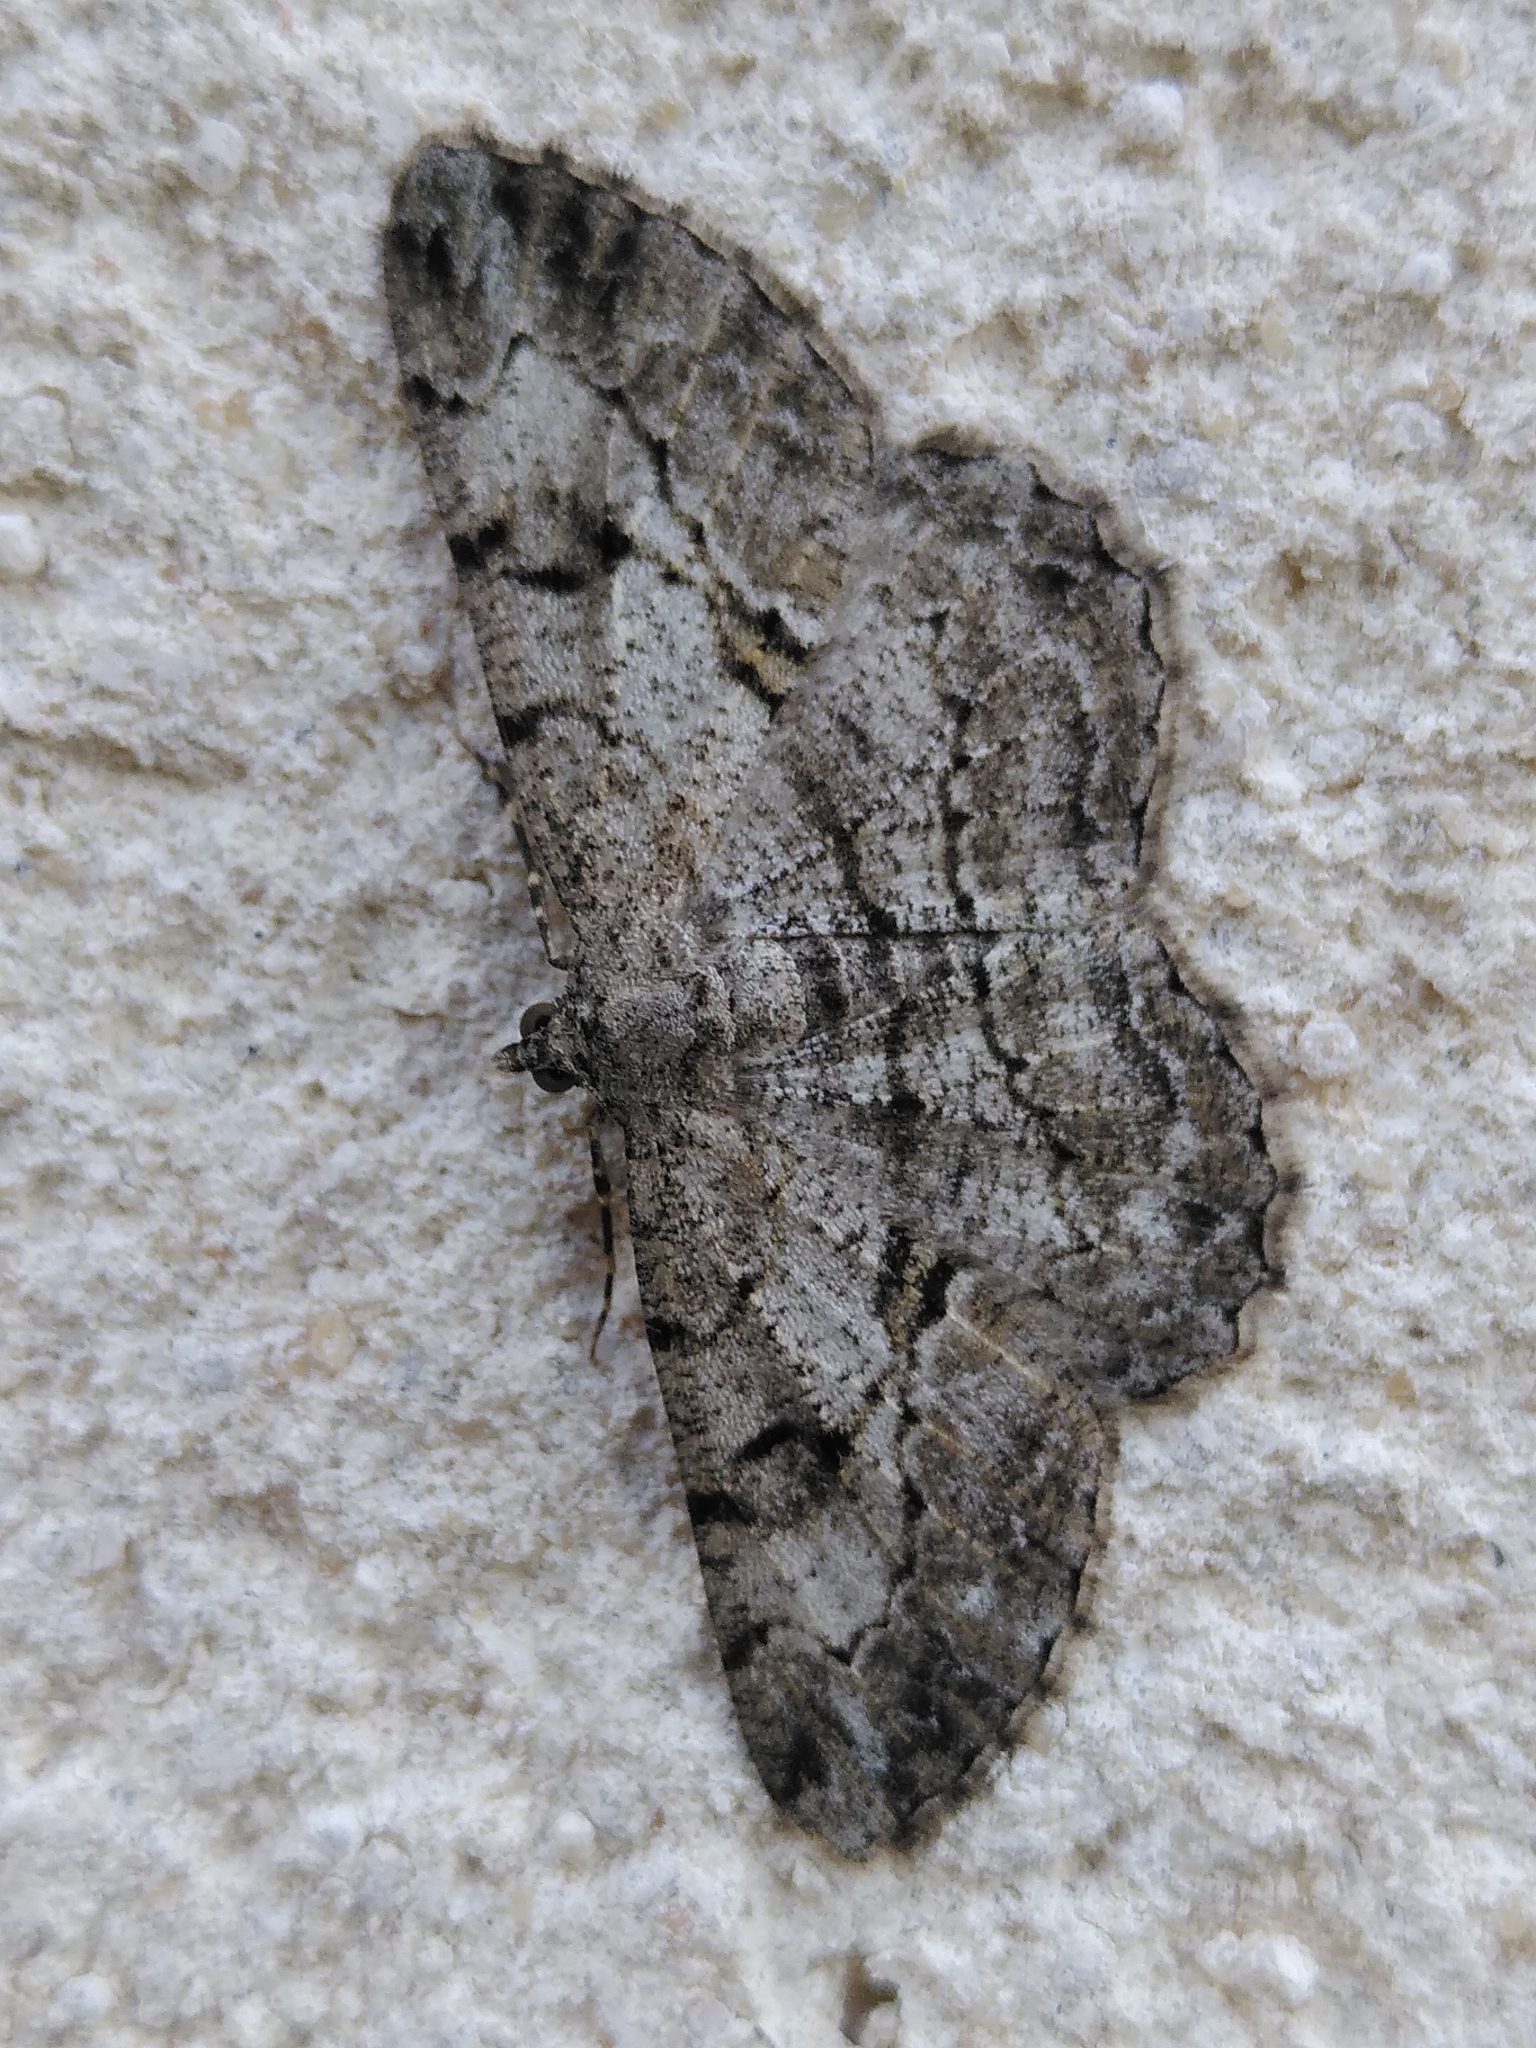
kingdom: Animalia
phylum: Arthropoda
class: Insecta
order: Lepidoptera
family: Geometridae
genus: Peribatodes
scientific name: Peribatodes rhomboidaria
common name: Willow beauty
